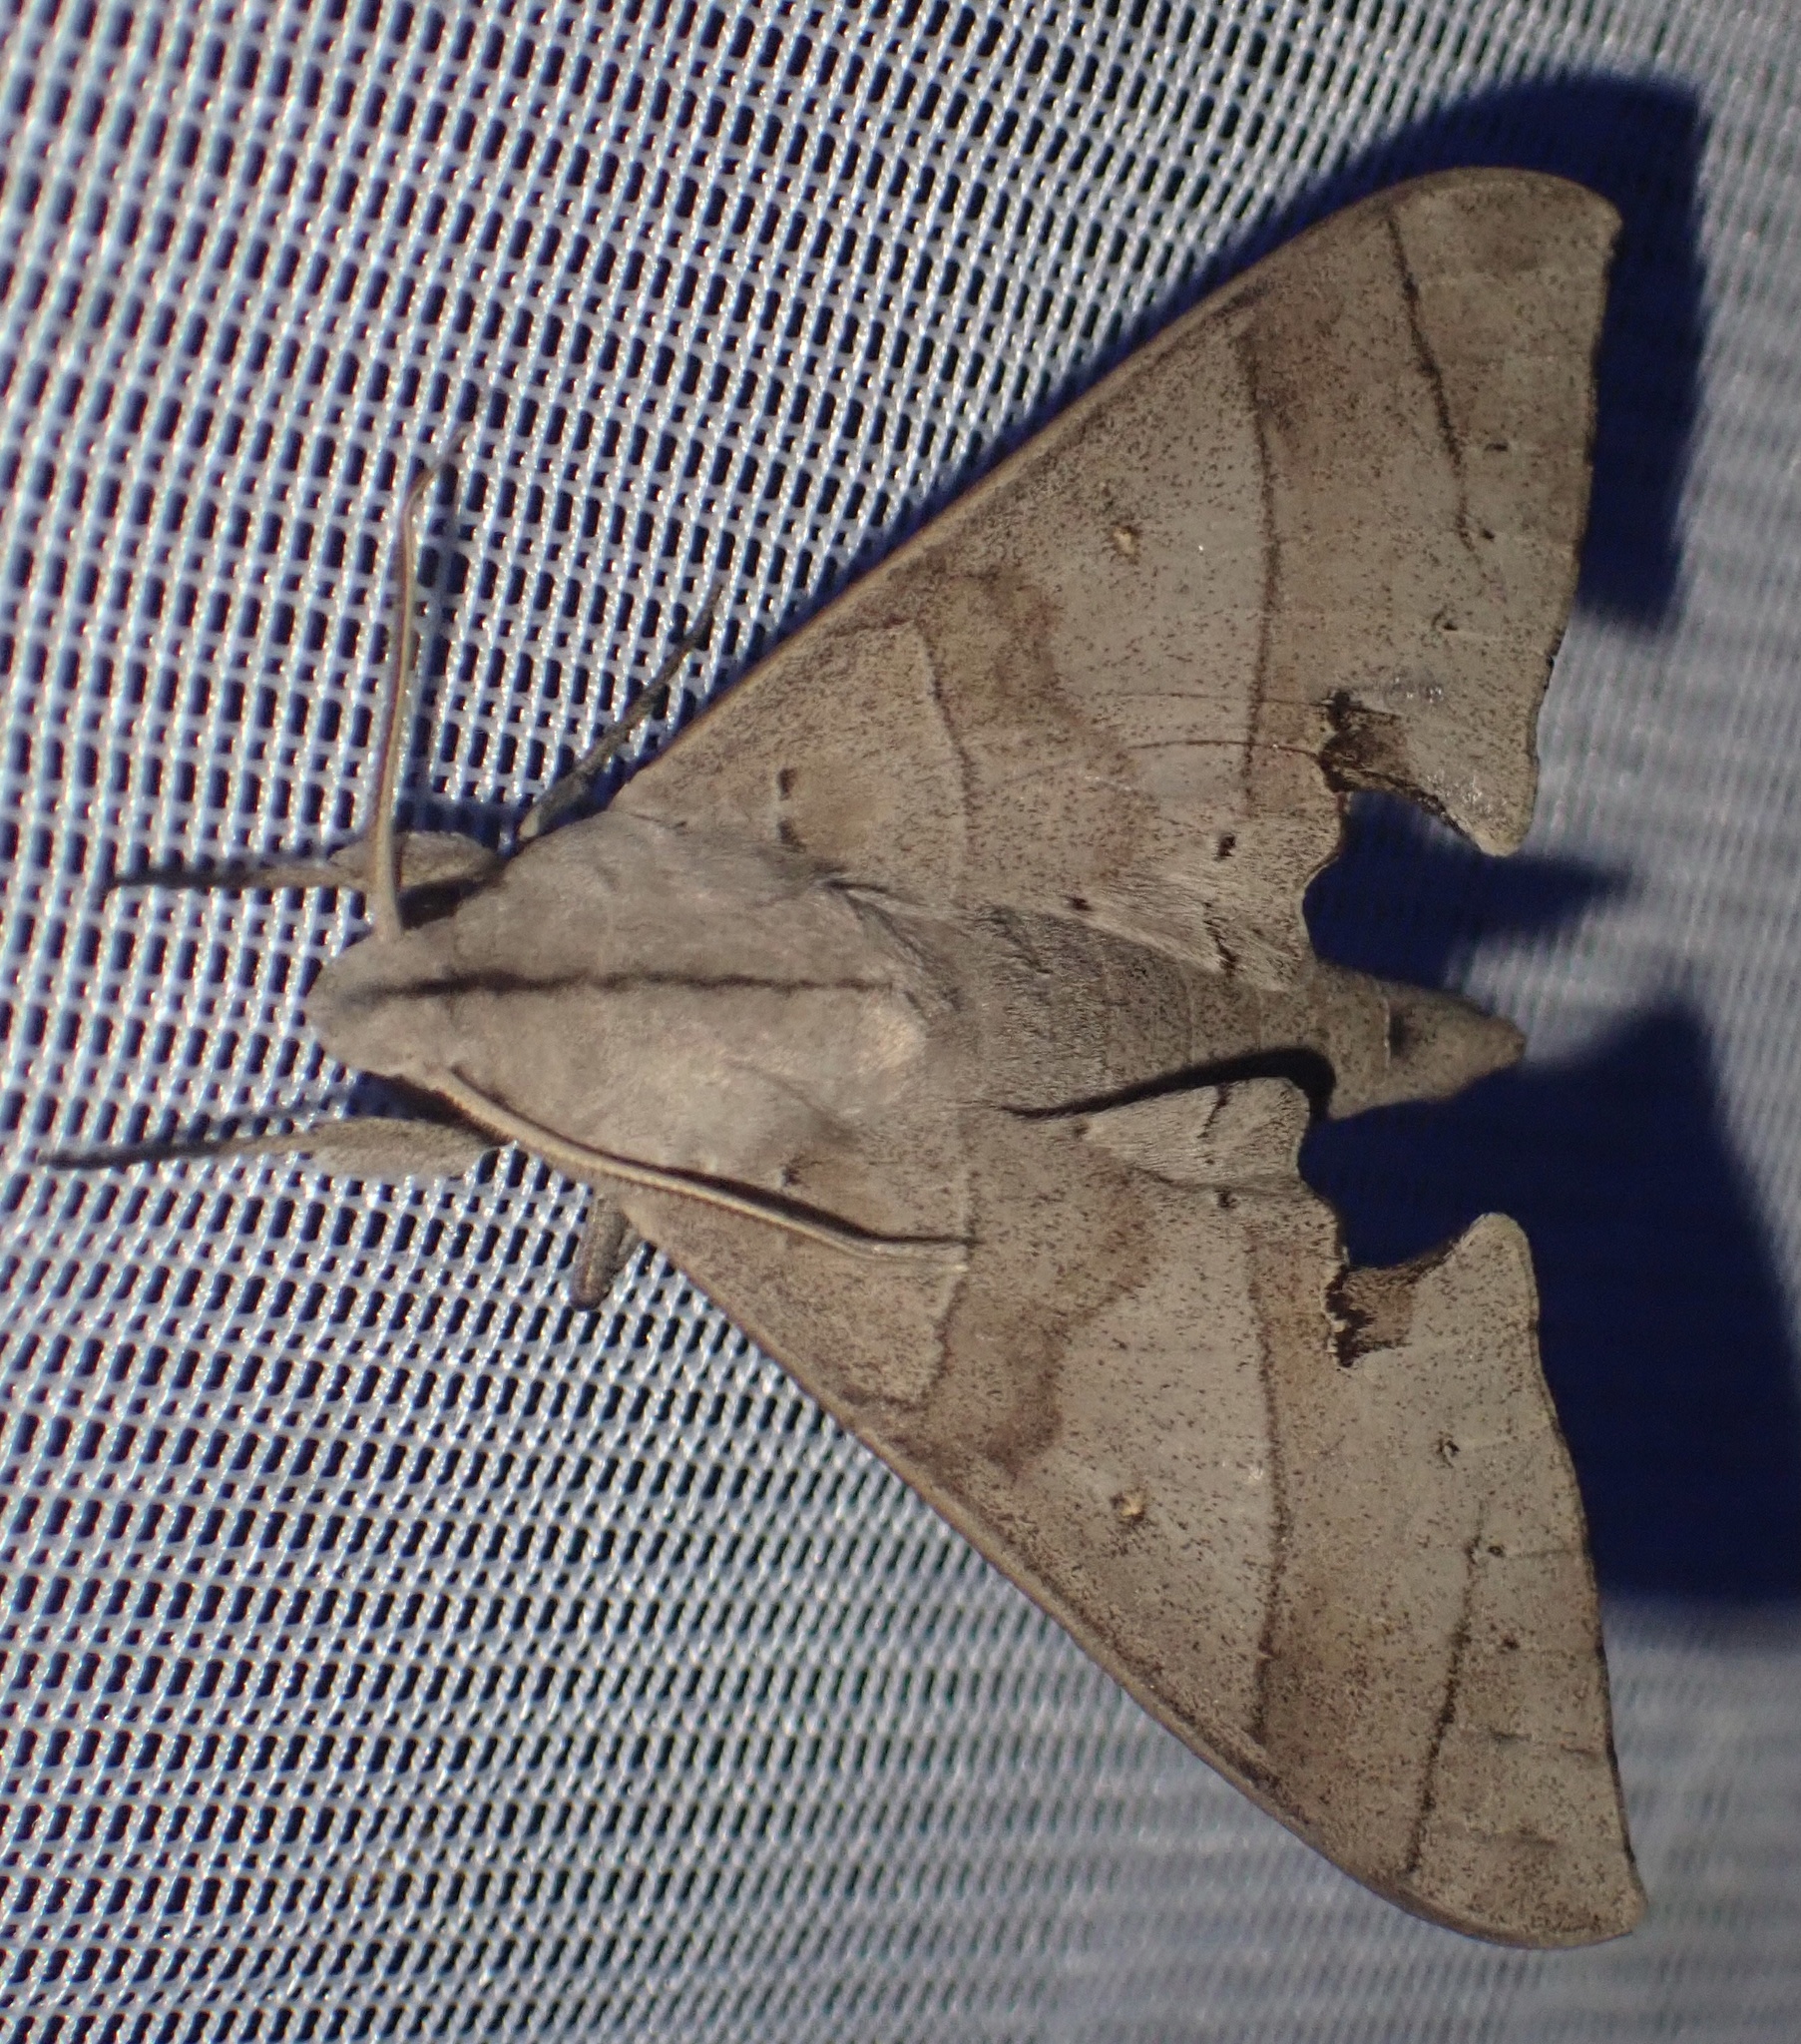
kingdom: Animalia
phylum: Arthropoda
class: Insecta
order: Lepidoptera
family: Sphingidae
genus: Polyptychus
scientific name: Polyptychus carteri
